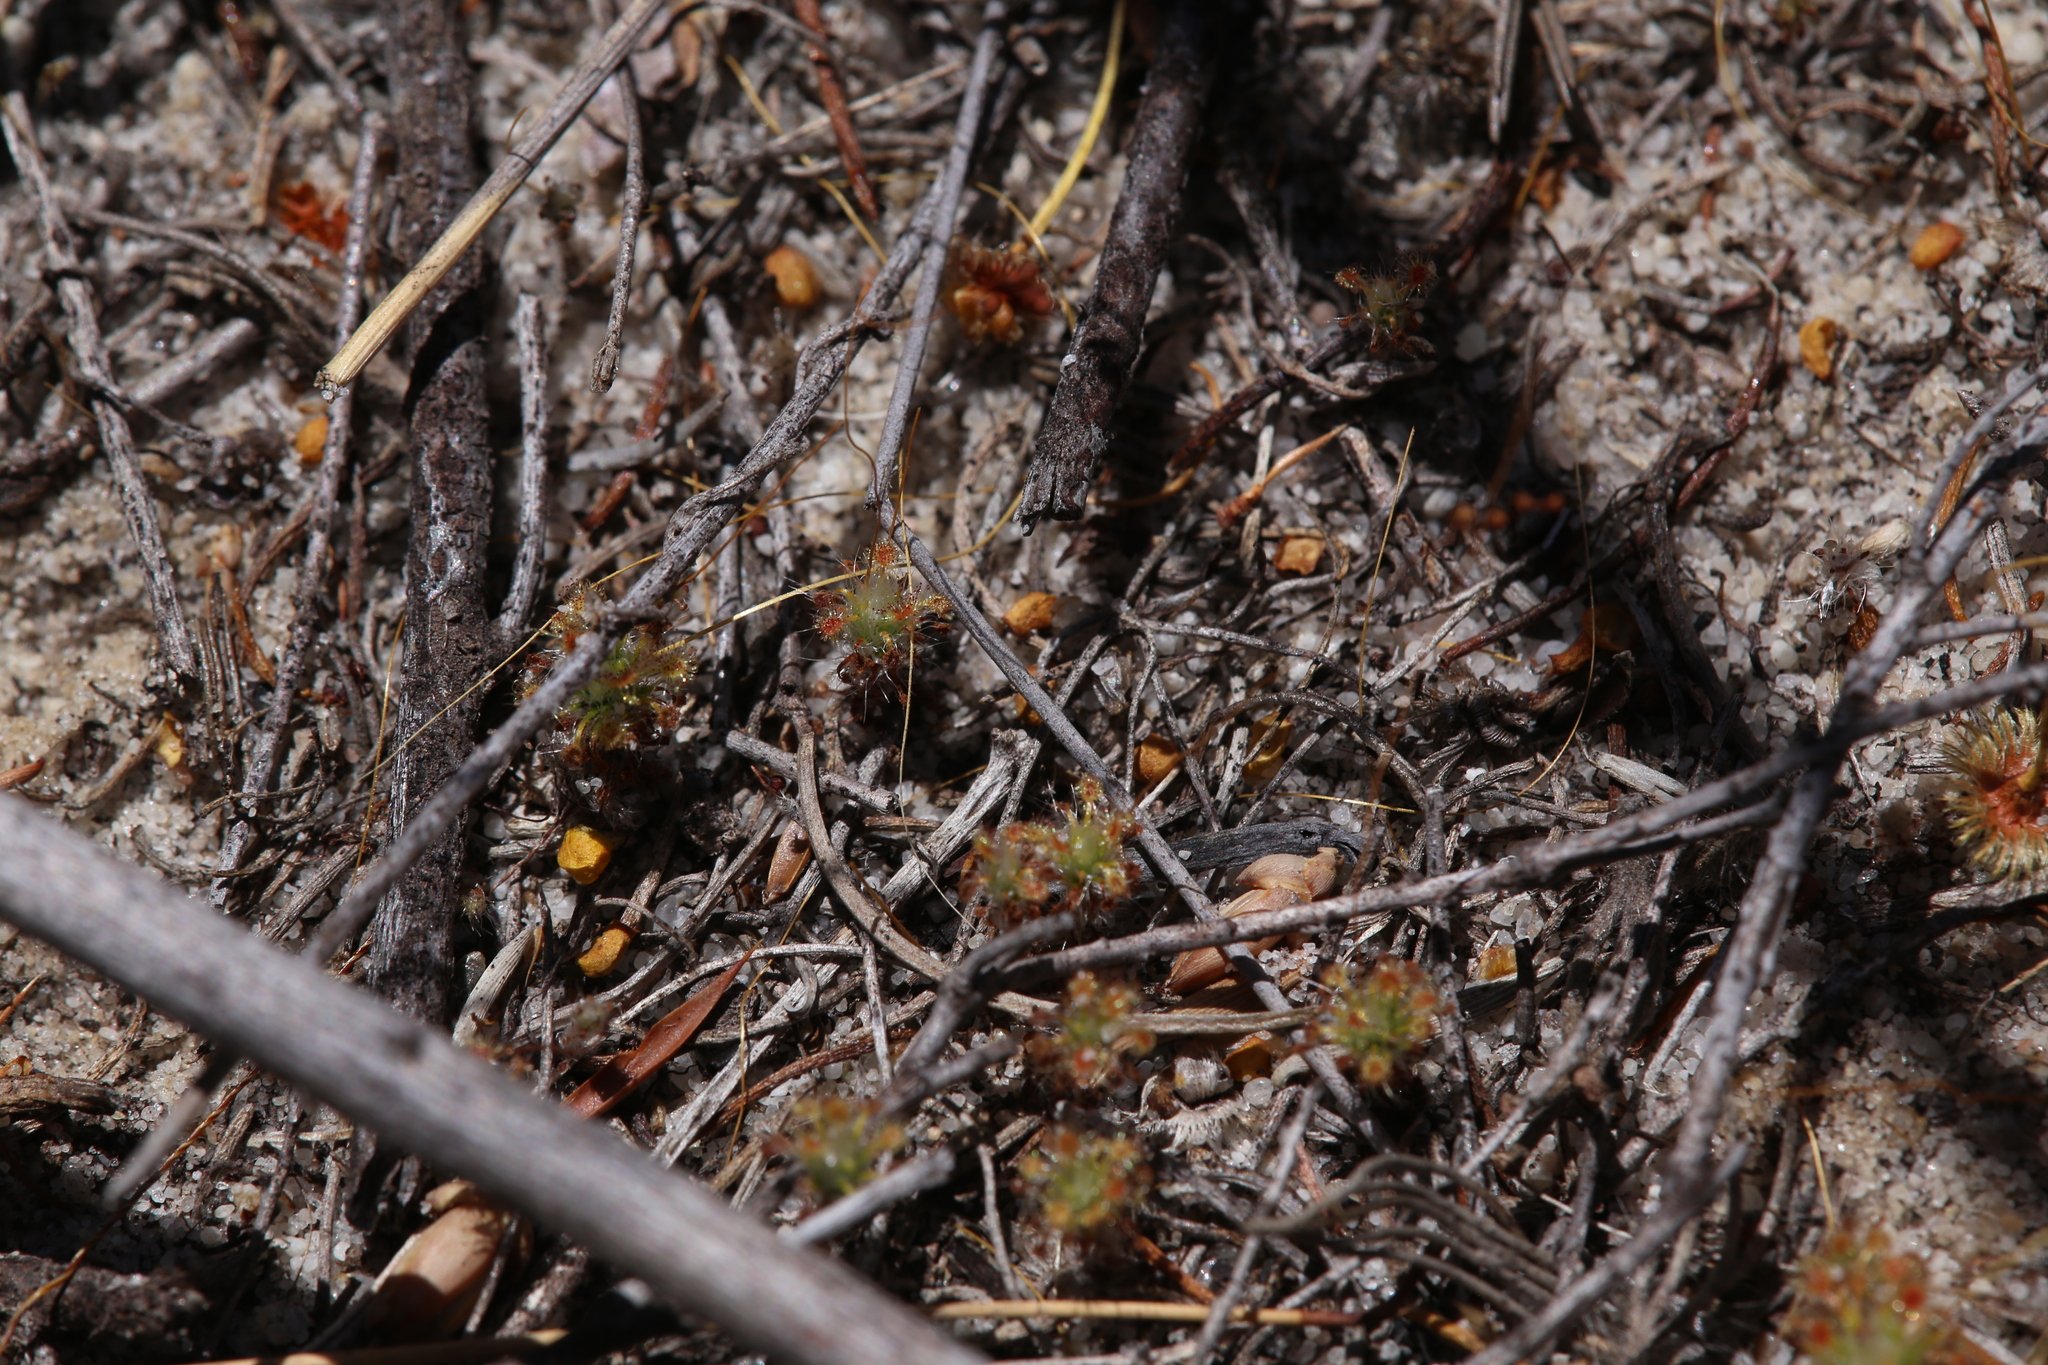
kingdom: Plantae
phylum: Tracheophyta
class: Magnoliopsida
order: Caryophyllales
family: Droseraceae
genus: Drosera
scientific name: Drosera paleacea
